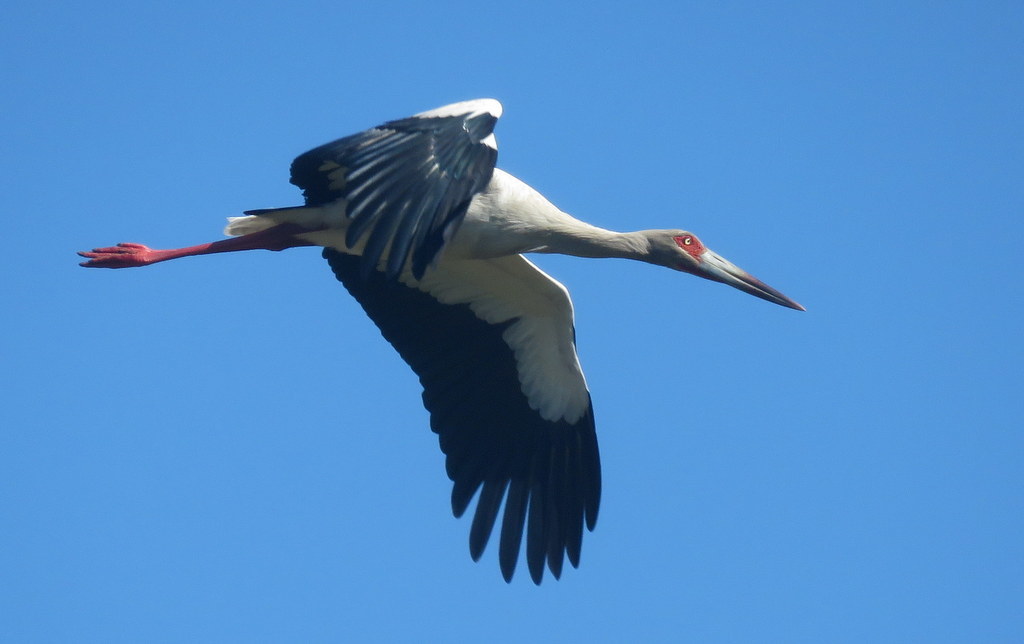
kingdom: Animalia
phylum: Chordata
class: Aves
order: Ciconiiformes
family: Ciconiidae
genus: Ciconia
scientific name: Ciconia maguari
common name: Maguari stork
